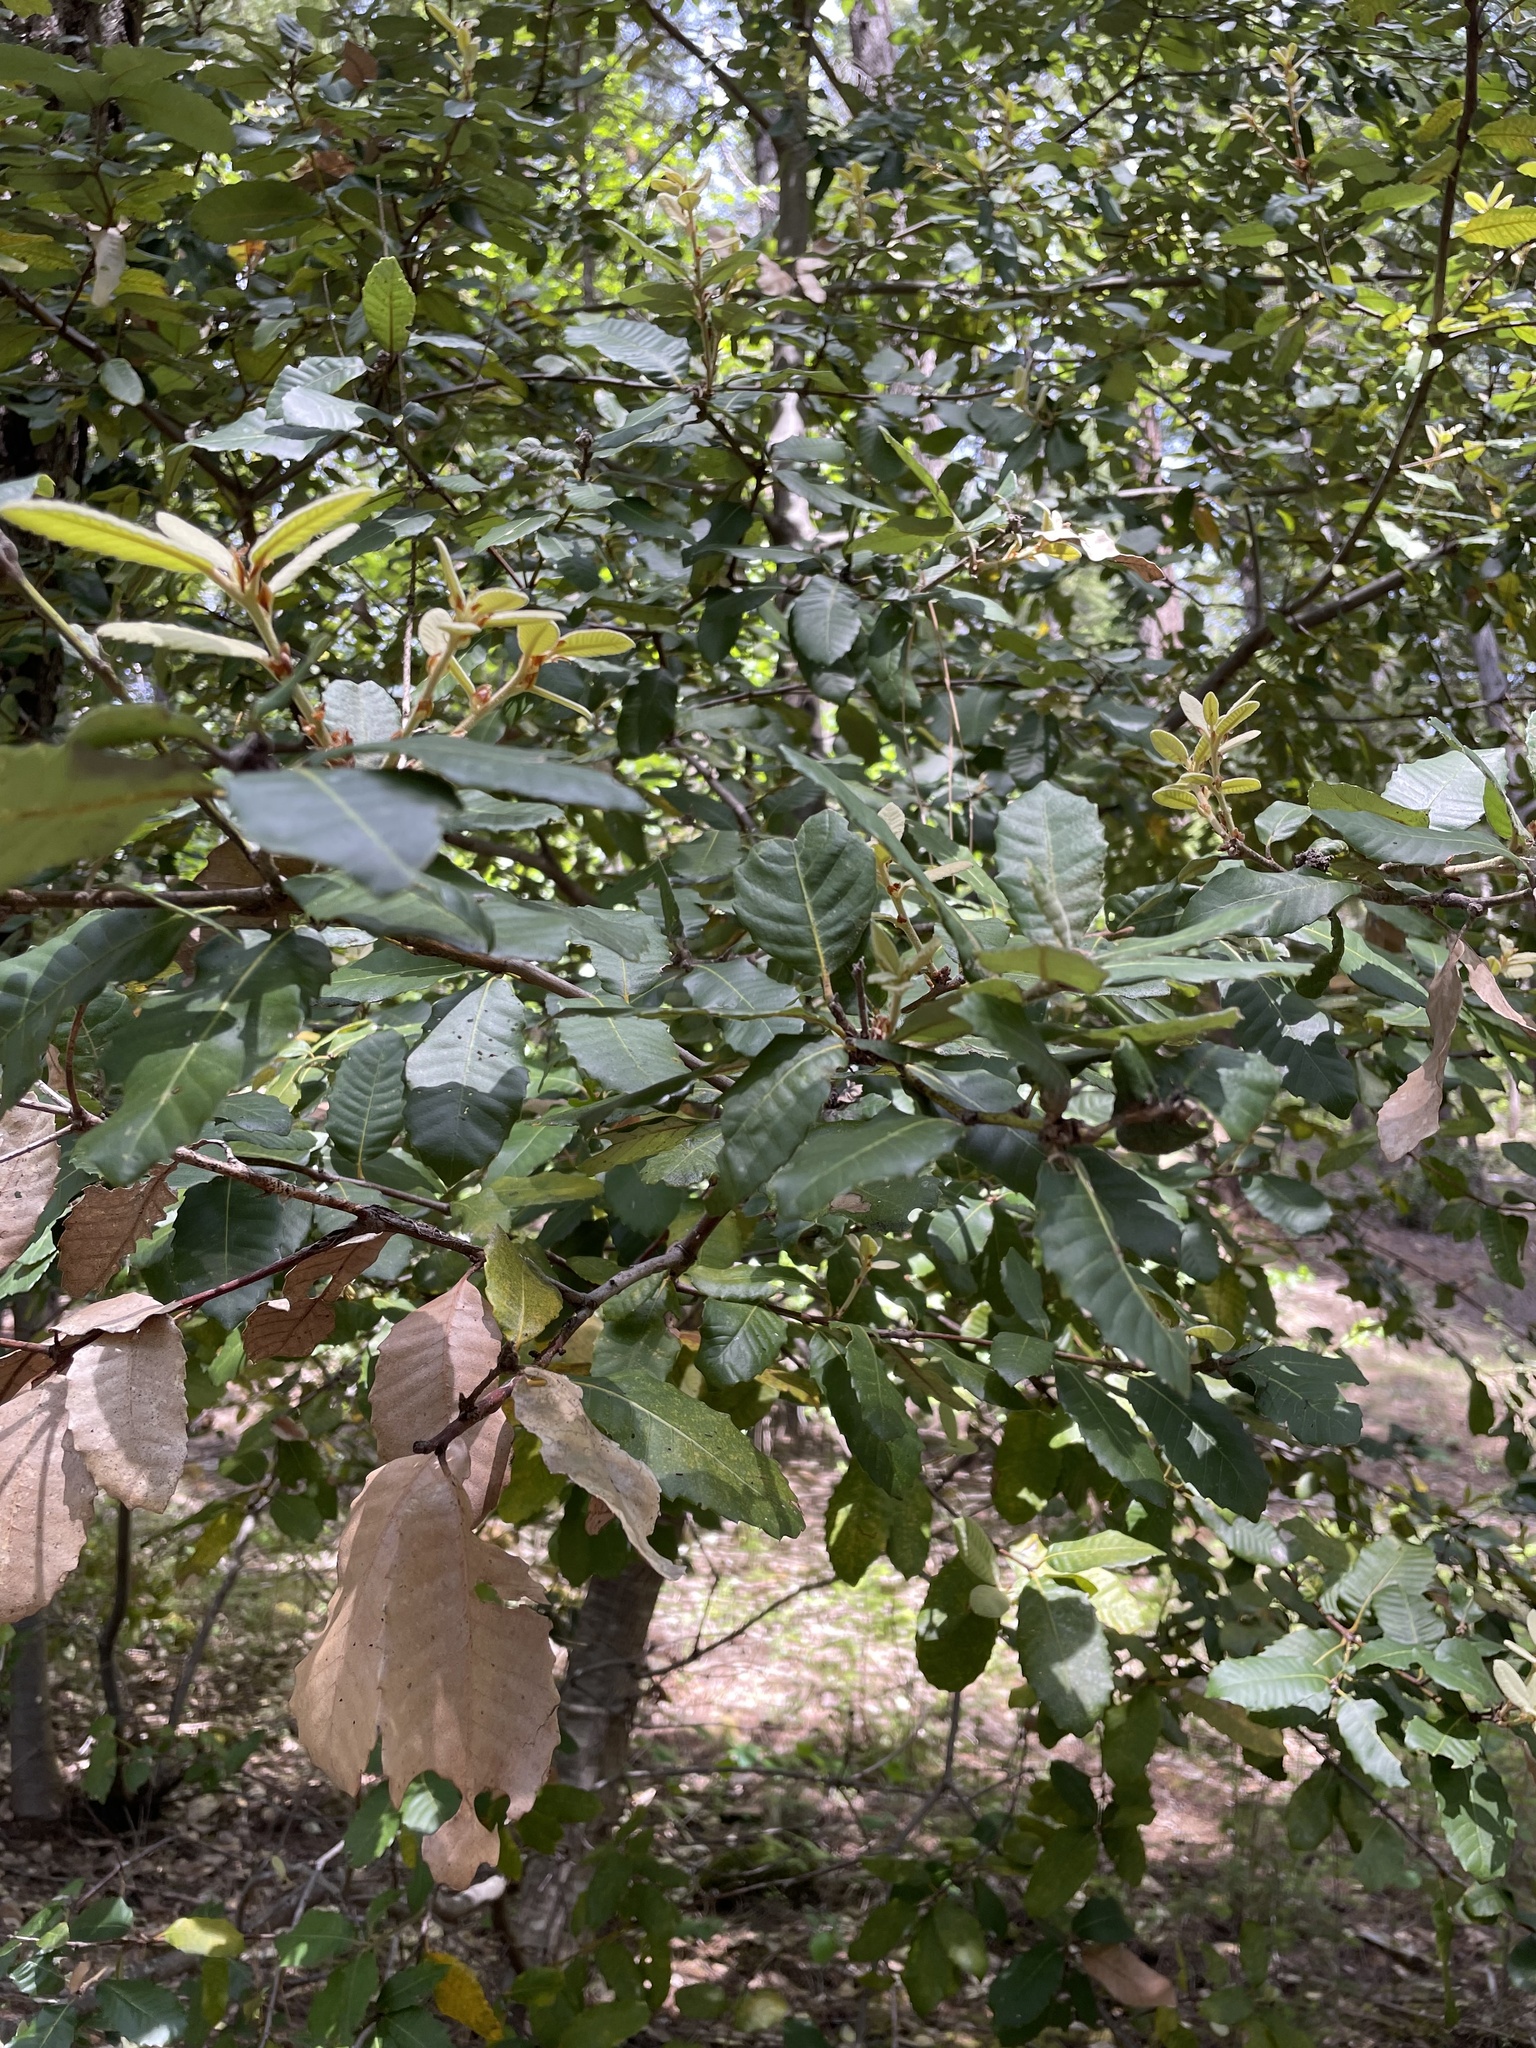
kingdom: Plantae
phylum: Tracheophyta
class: Magnoliopsida
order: Fagales
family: Fagaceae
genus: Notholithocarpus
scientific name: Notholithocarpus densiflorus
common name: Tan bark oak
